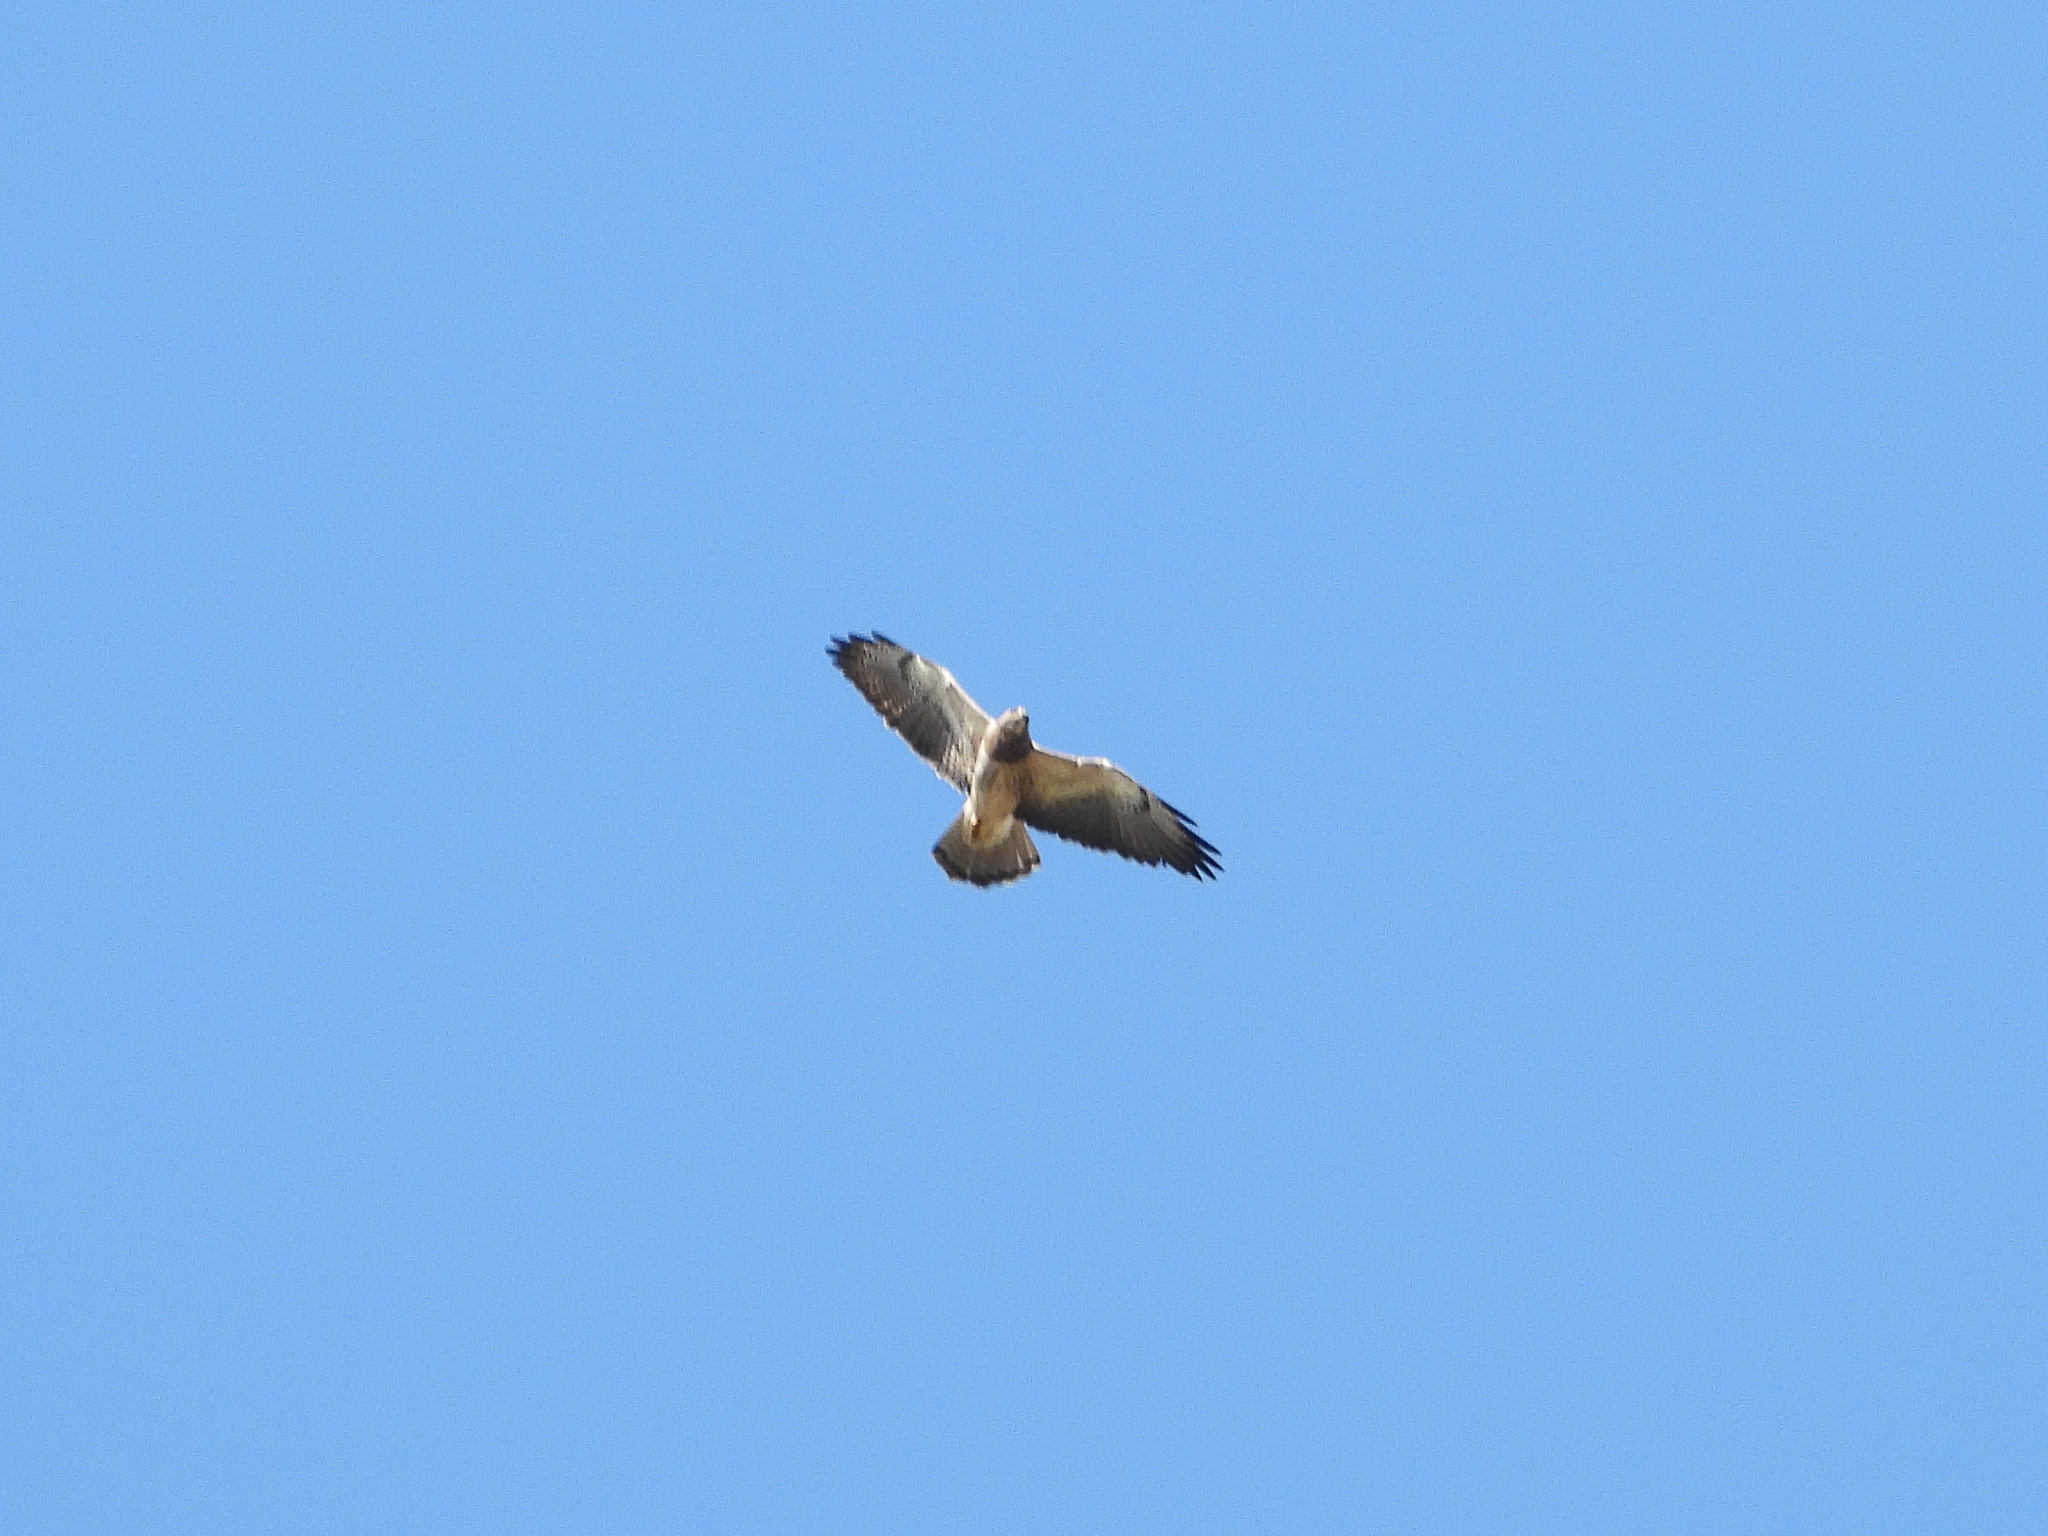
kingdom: Animalia
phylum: Chordata
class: Aves
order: Accipitriformes
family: Accipitridae
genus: Buteo
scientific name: Buteo swainsoni
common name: Swainson's hawk
